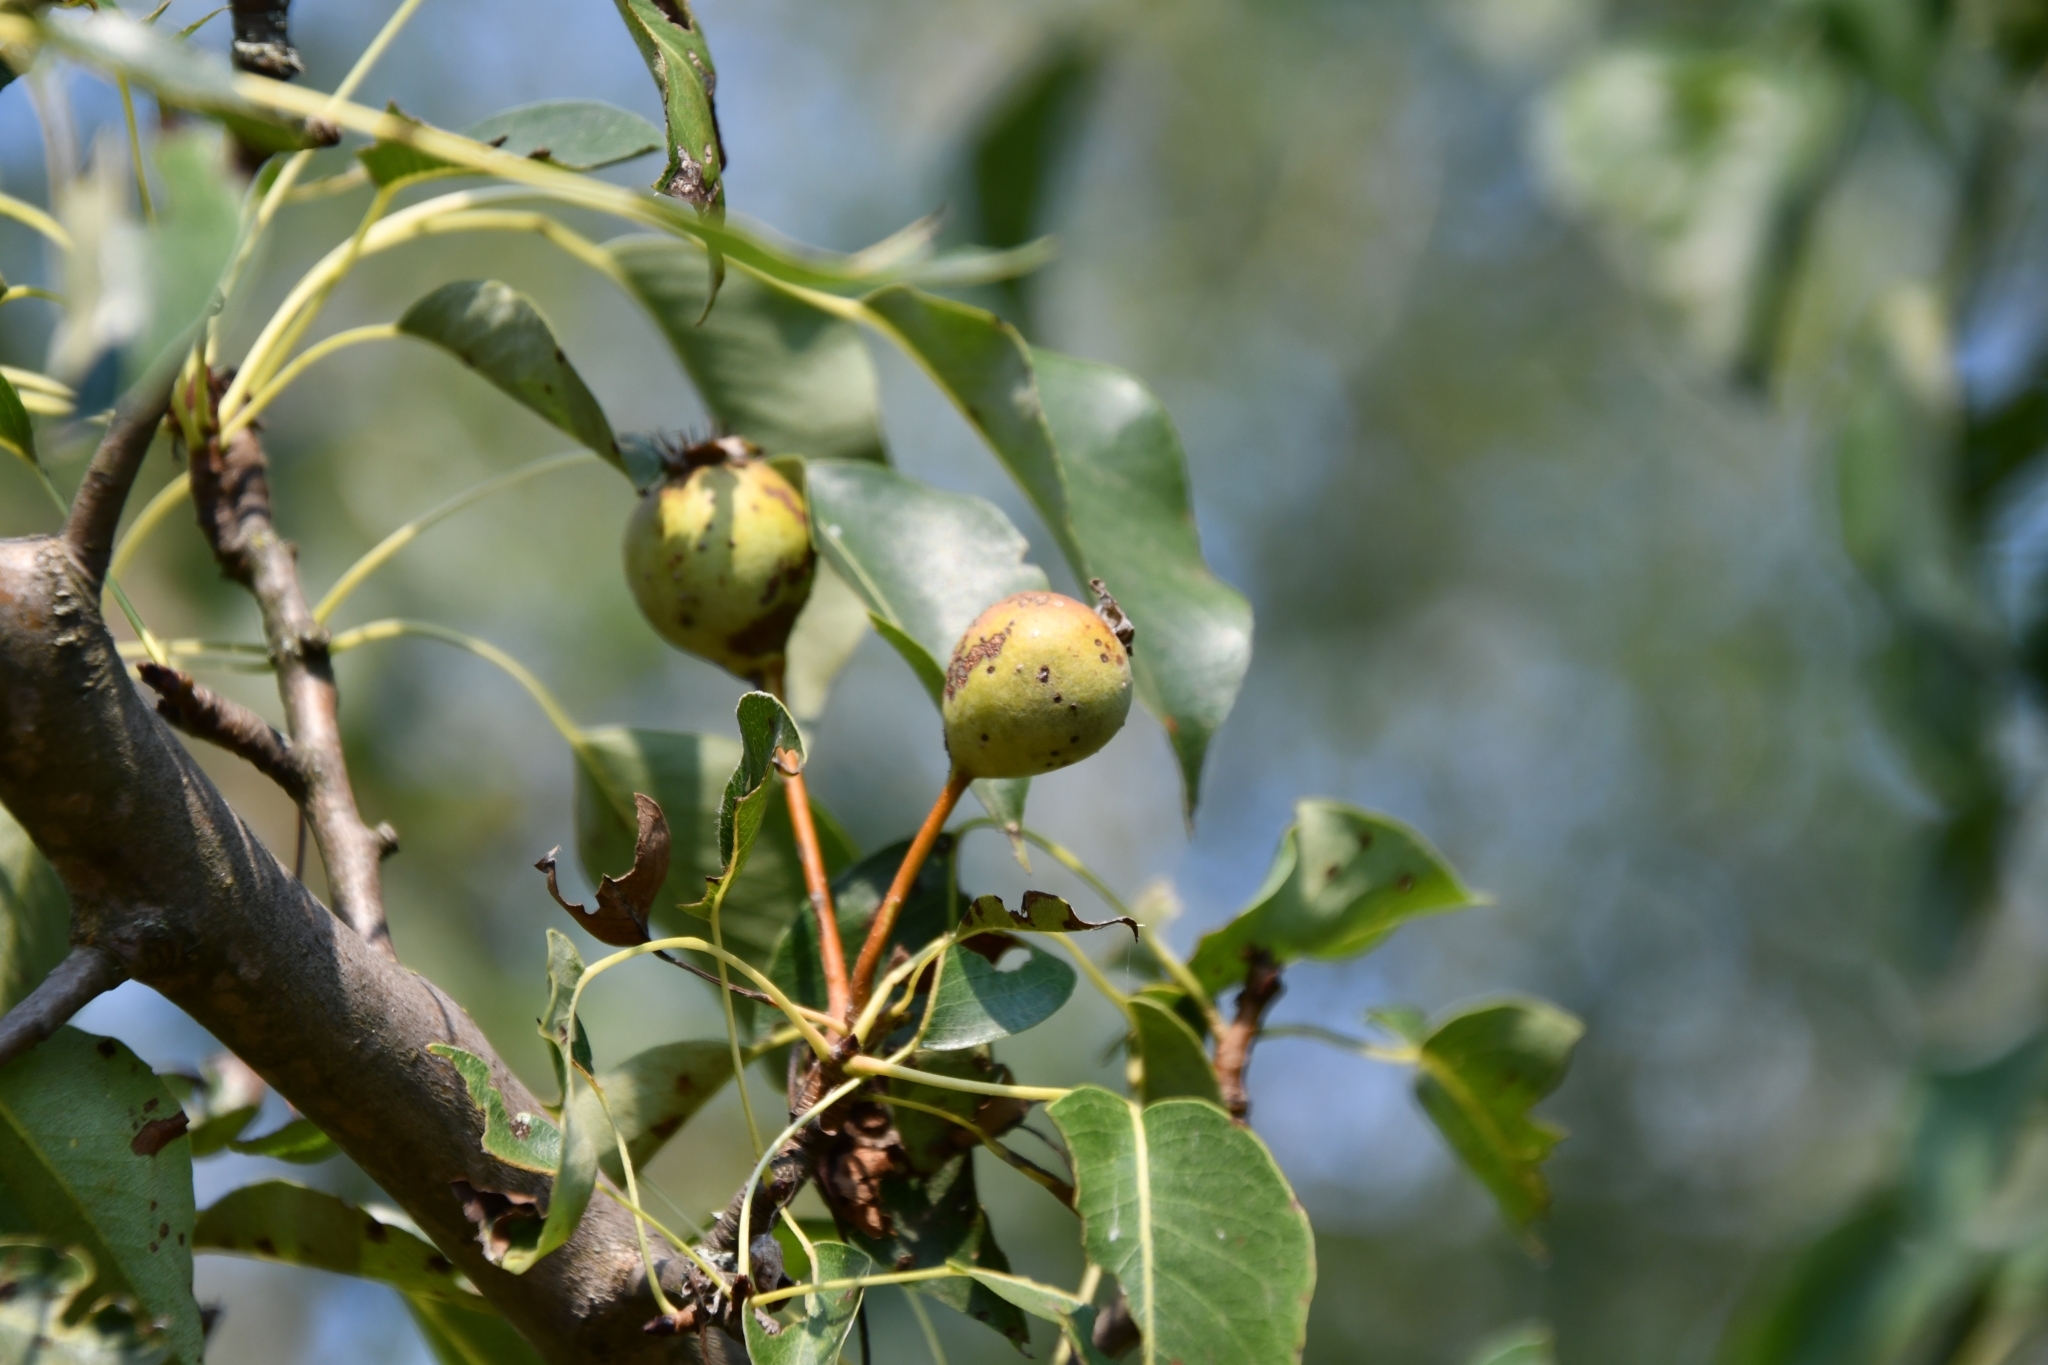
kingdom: Plantae
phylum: Tracheophyta
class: Magnoliopsida
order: Rosales
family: Rosaceae
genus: Pyrus
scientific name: Pyrus communis
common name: Pear
